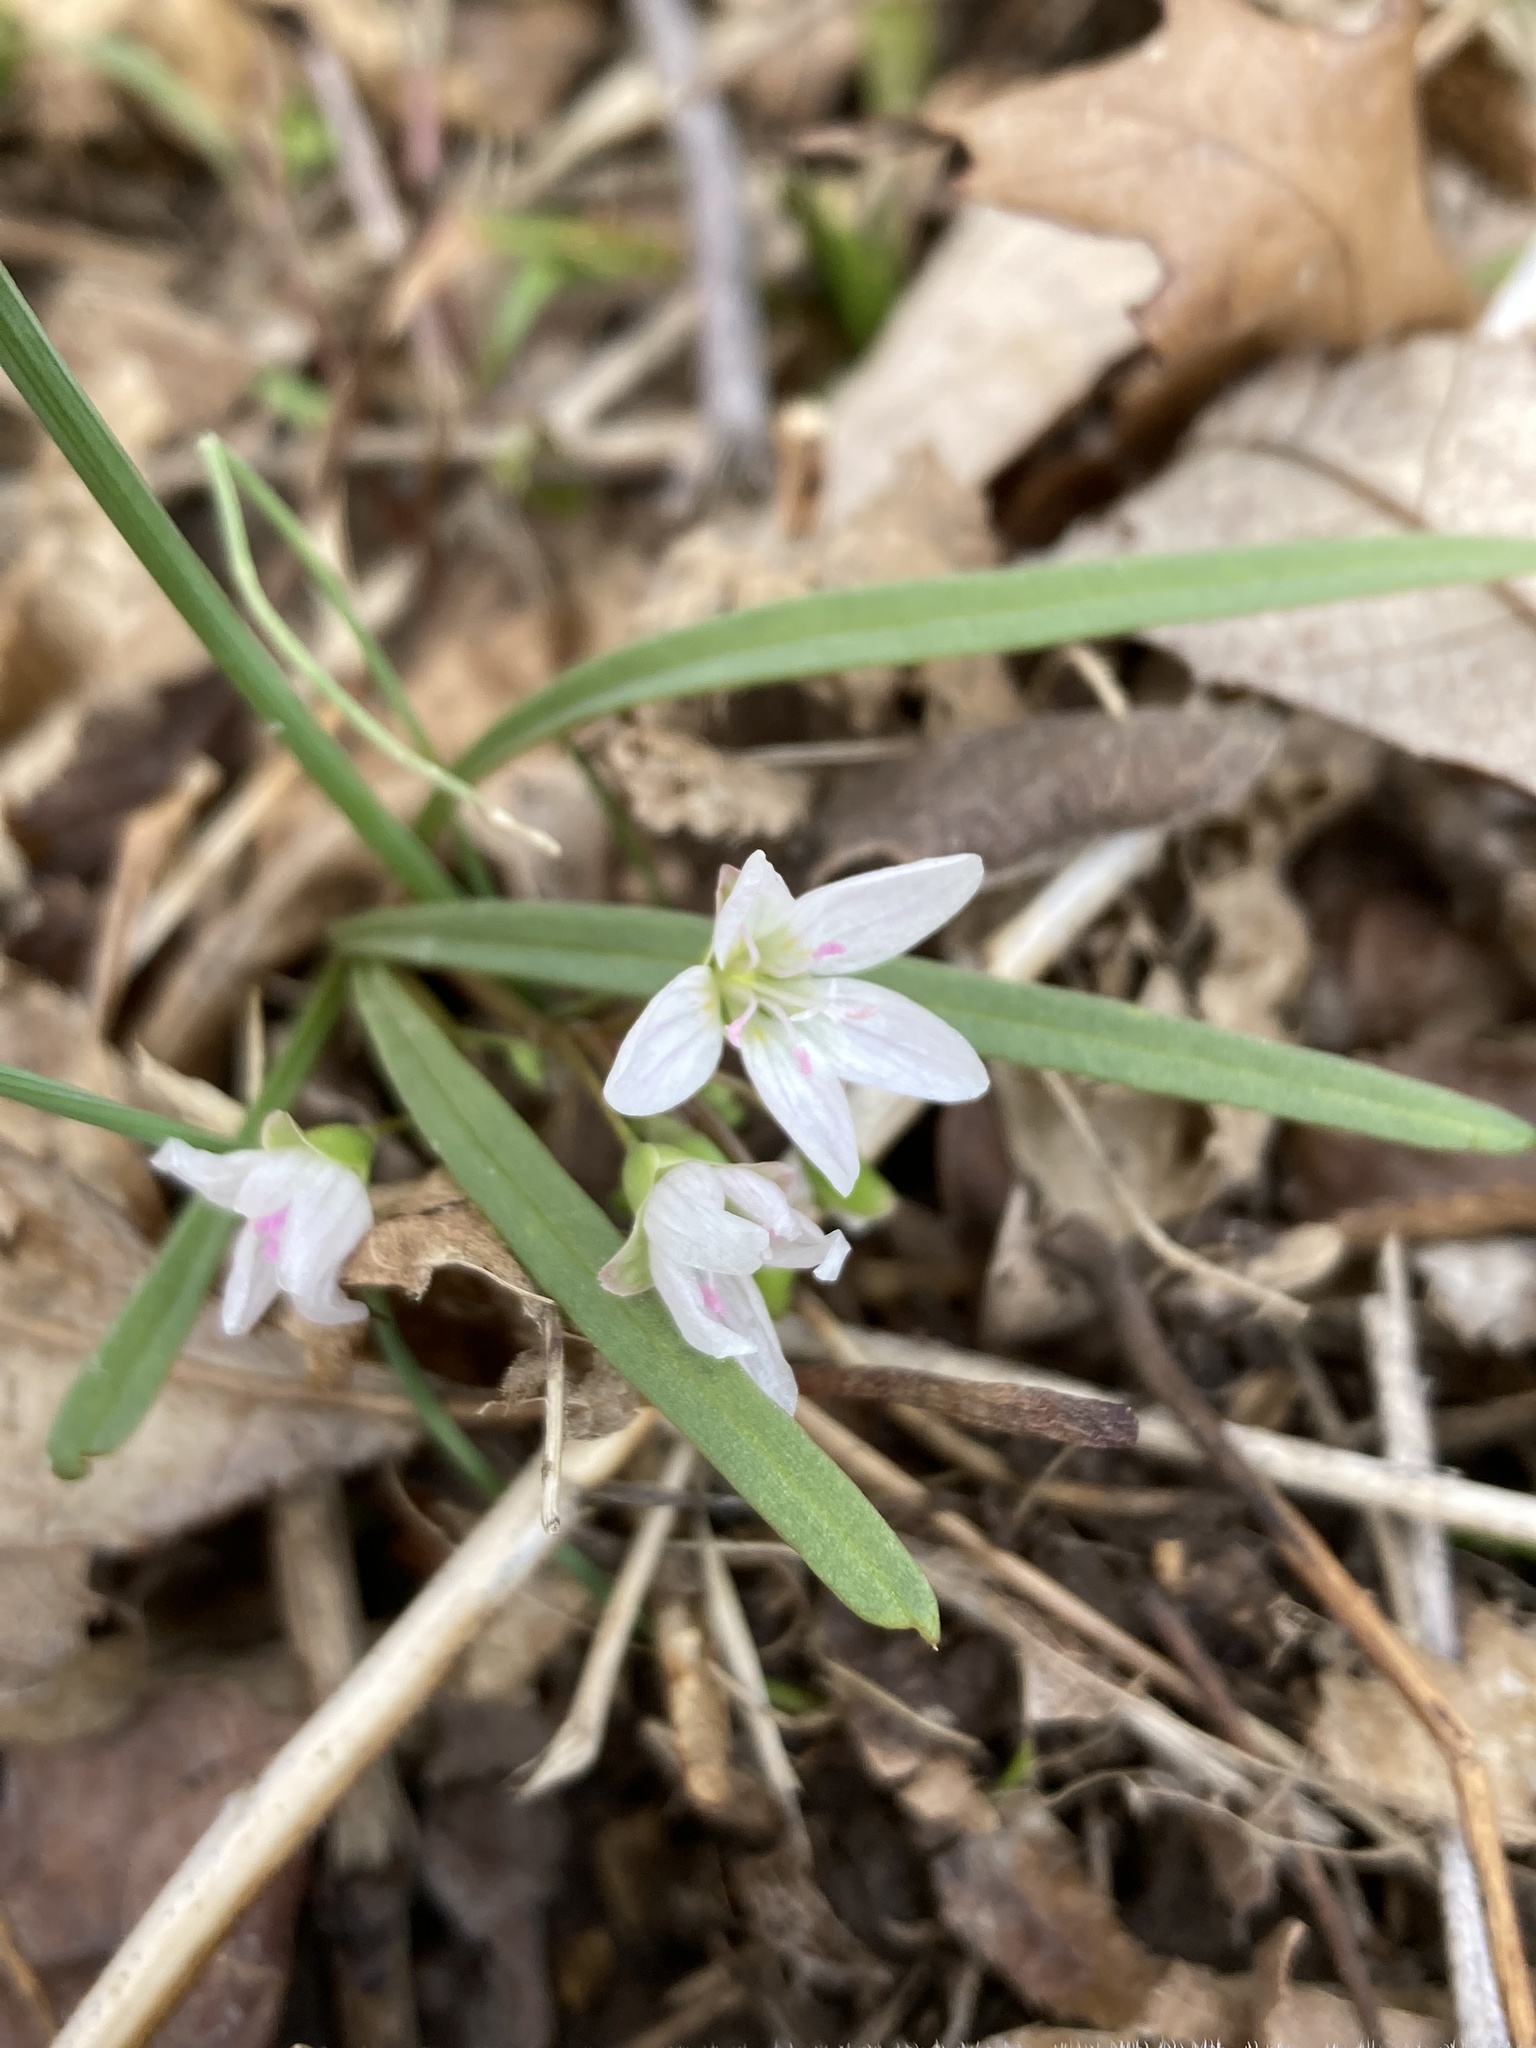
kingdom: Plantae
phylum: Tracheophyta
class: Magnoliopsida
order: Caryophyllales
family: Montiaceae
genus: Claytonia
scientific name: Claytonia virginica
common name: Virginia springbeauty
